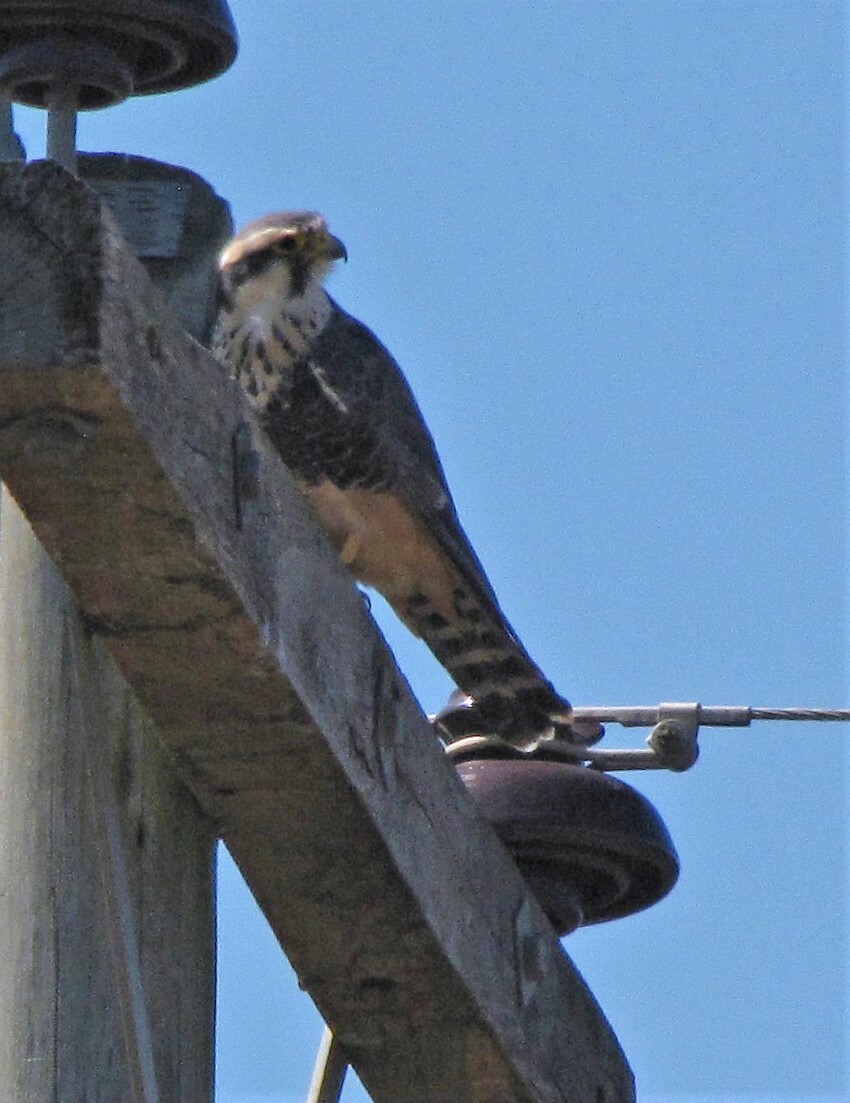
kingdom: Animalia
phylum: Chordata
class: Aves
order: Falconiformes
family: Falconidae
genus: Falco
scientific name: Falco femoralis
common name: Aplomado falcon
